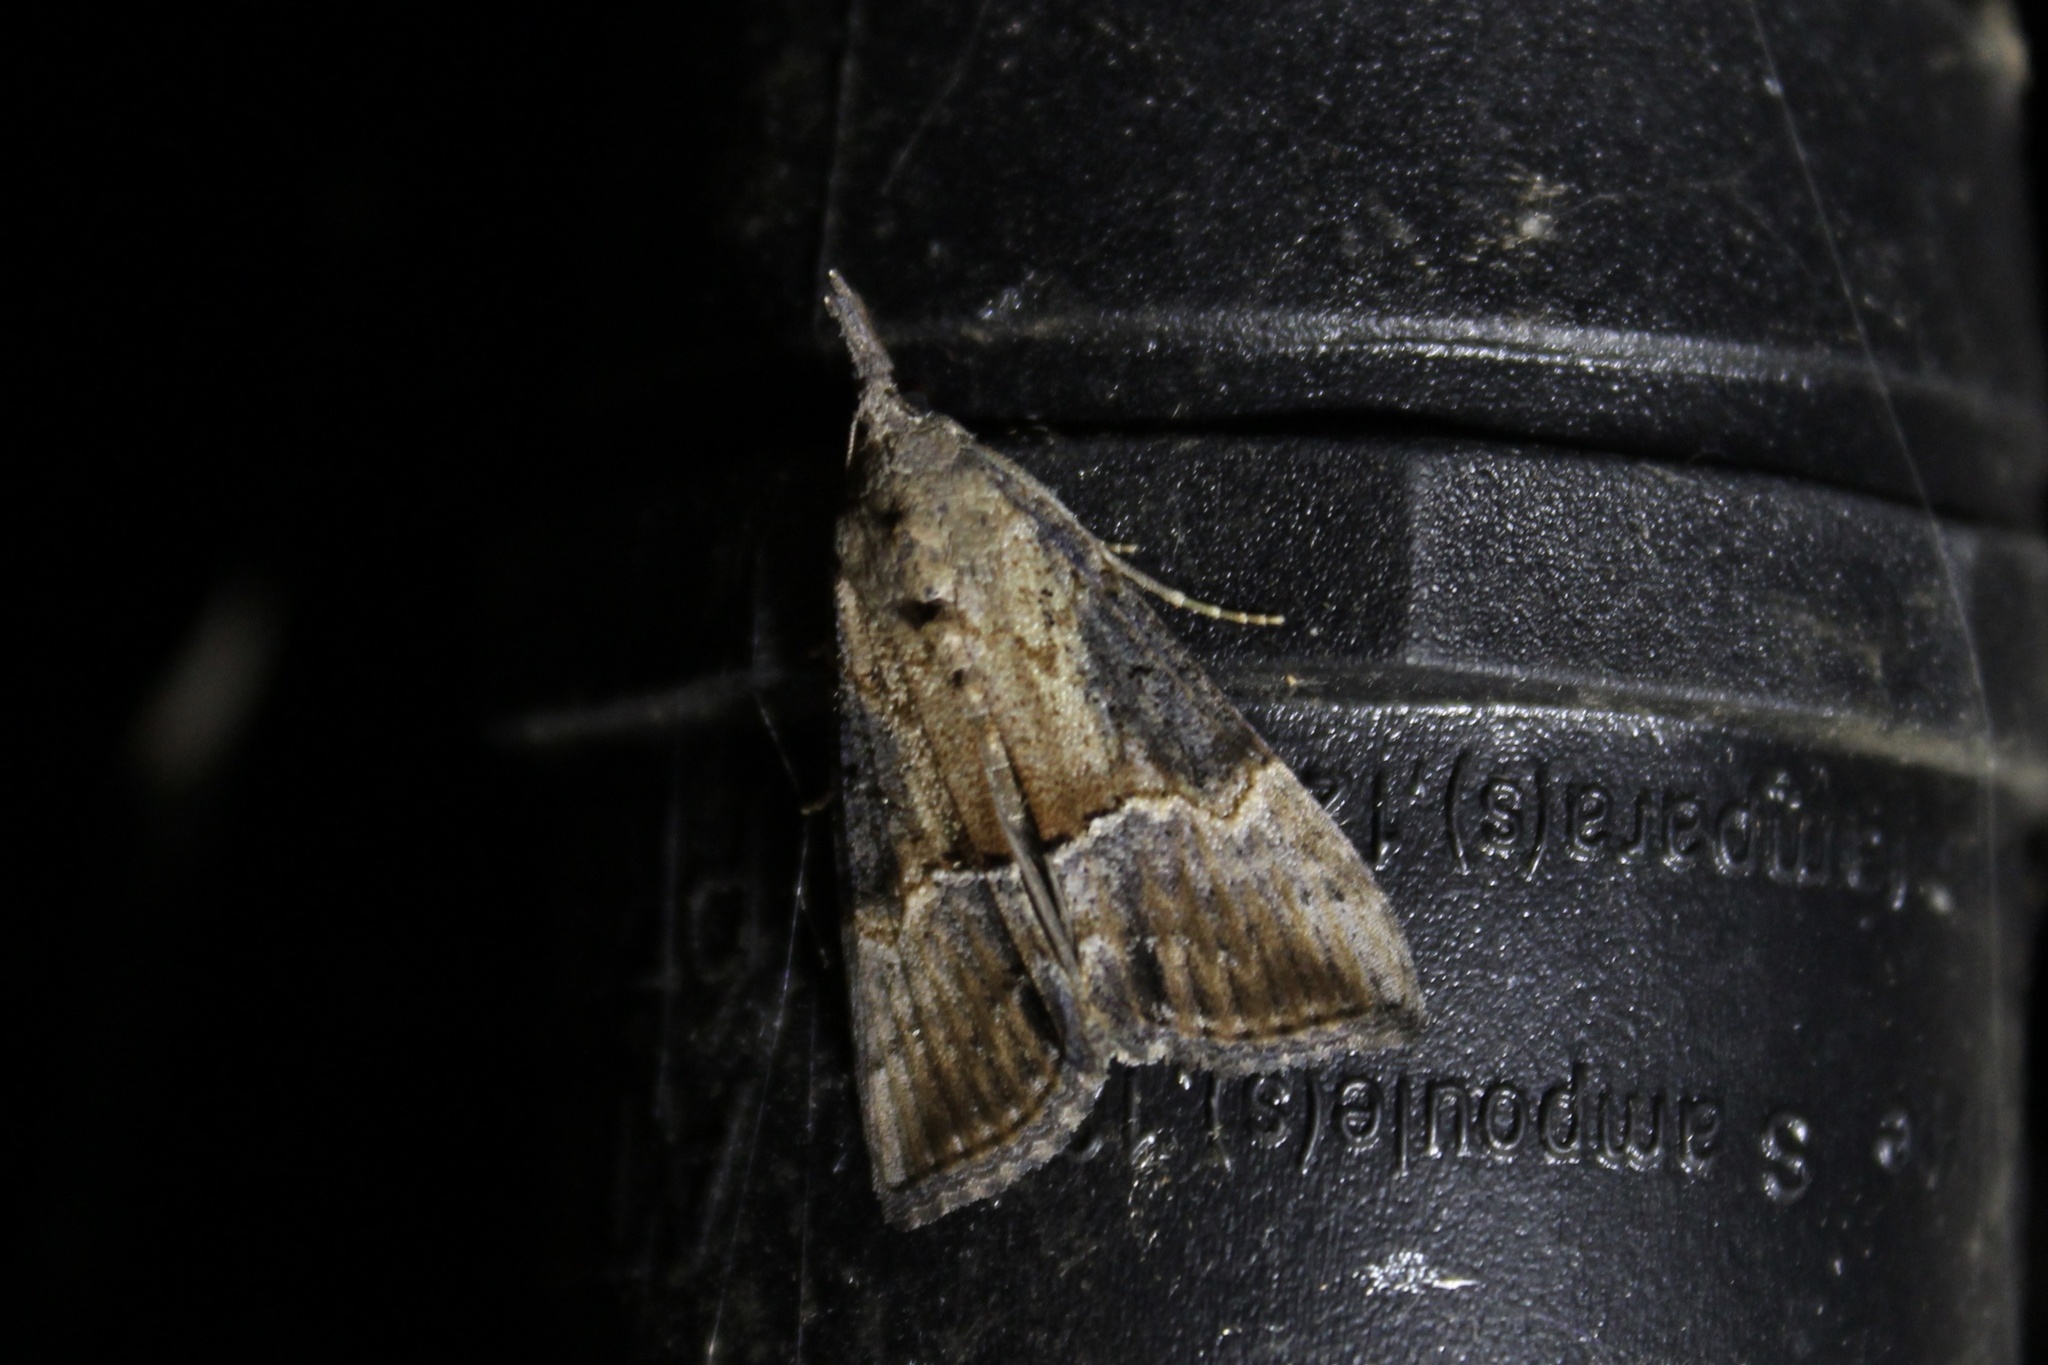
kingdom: Animalia
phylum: Arthropoda
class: Insecta
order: Lepidoptera
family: Erebidae
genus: Hypena
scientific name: Hypena scabra
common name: Green cloverworm
